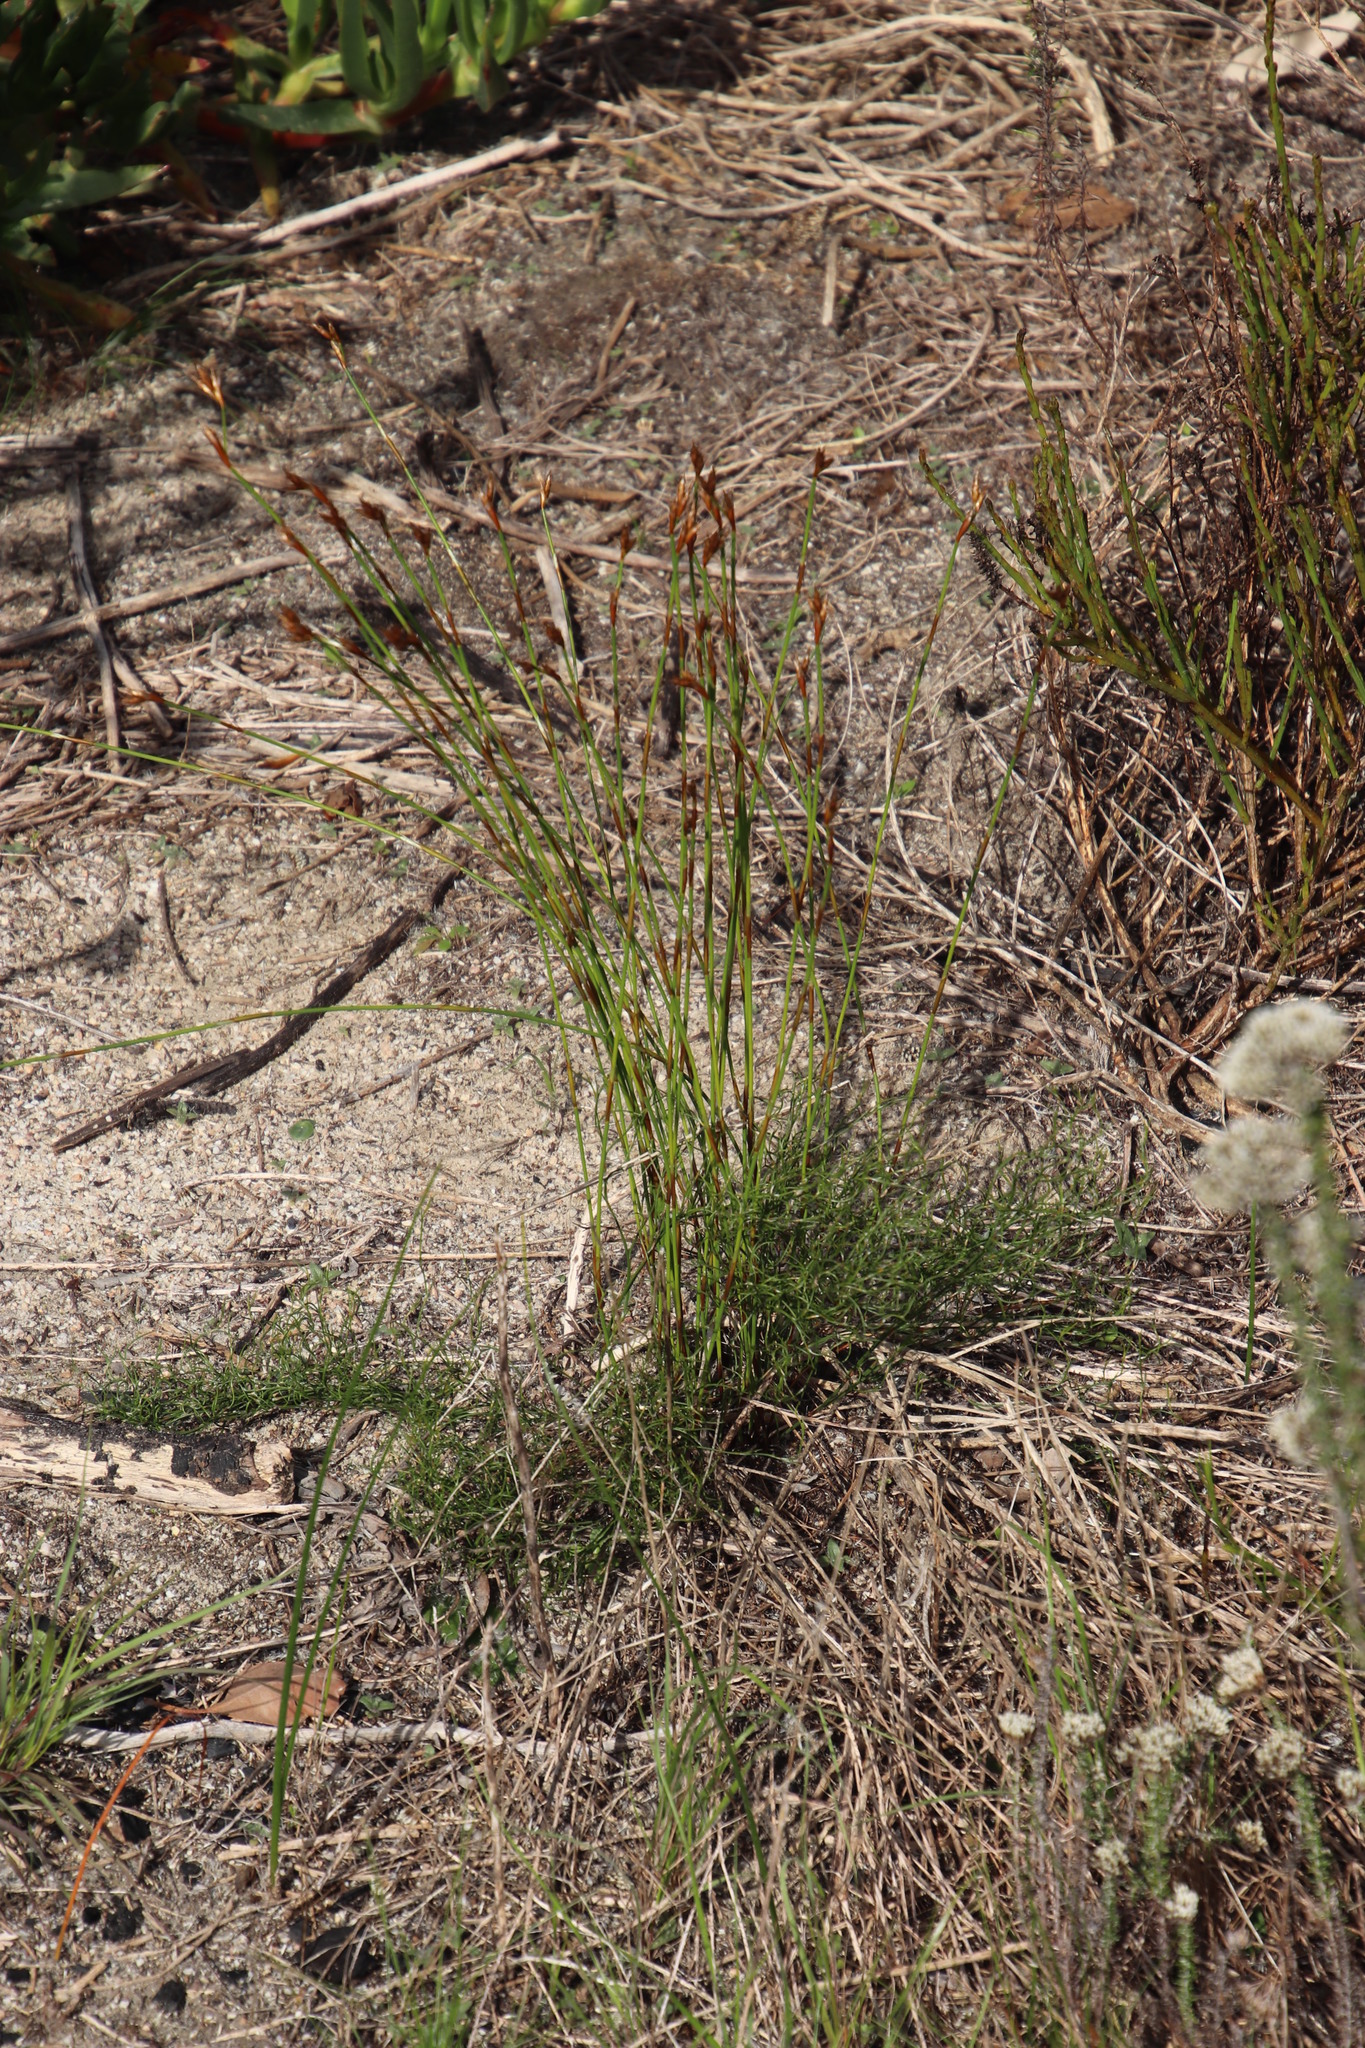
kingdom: Plantae
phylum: Tracheophyta
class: Liliopsida
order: Poales
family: Restionaceae
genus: Restio
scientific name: Restio capensis
